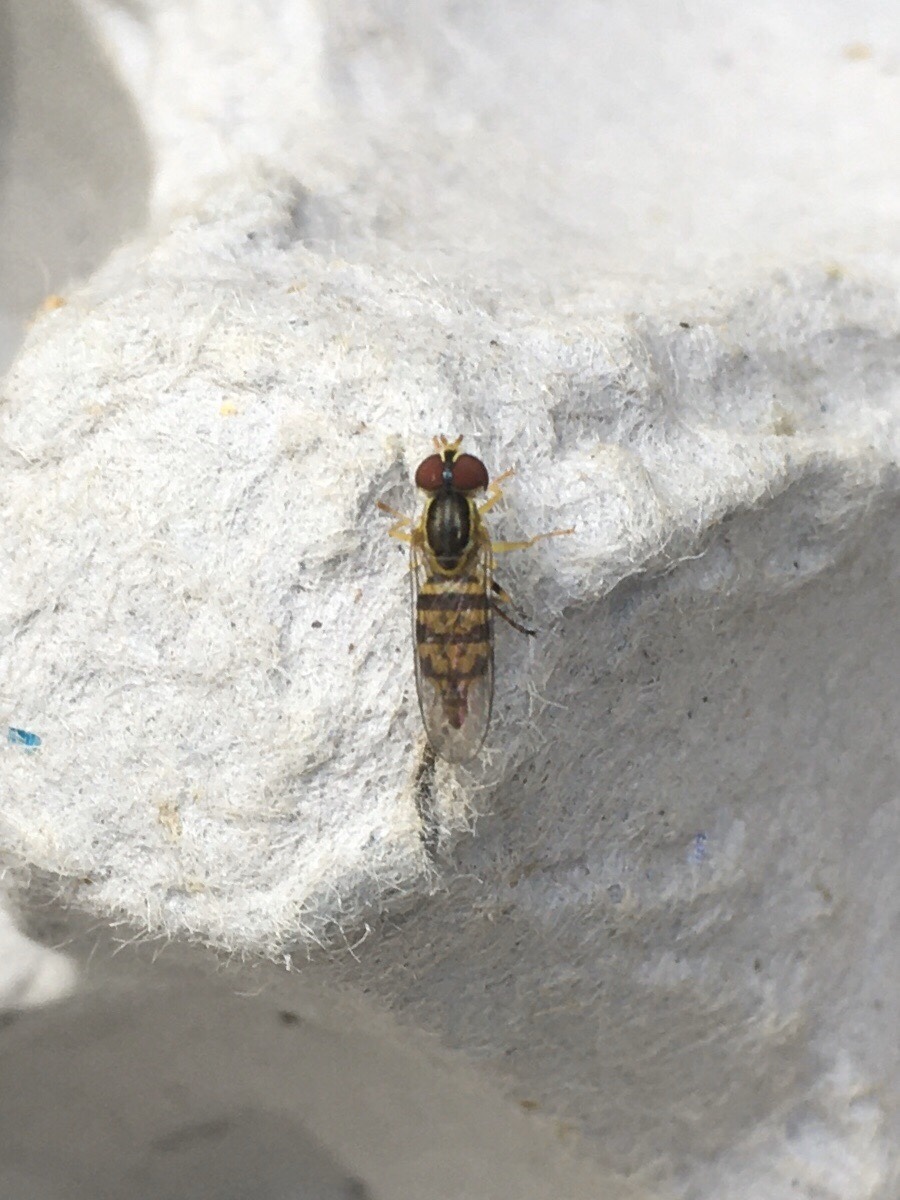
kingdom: Animalia
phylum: Arthropoda
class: Insecta
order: Diptera
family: Syrphidae
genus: Toxomerus
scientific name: Toxomerus geminatus
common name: Eastern calligrapher
